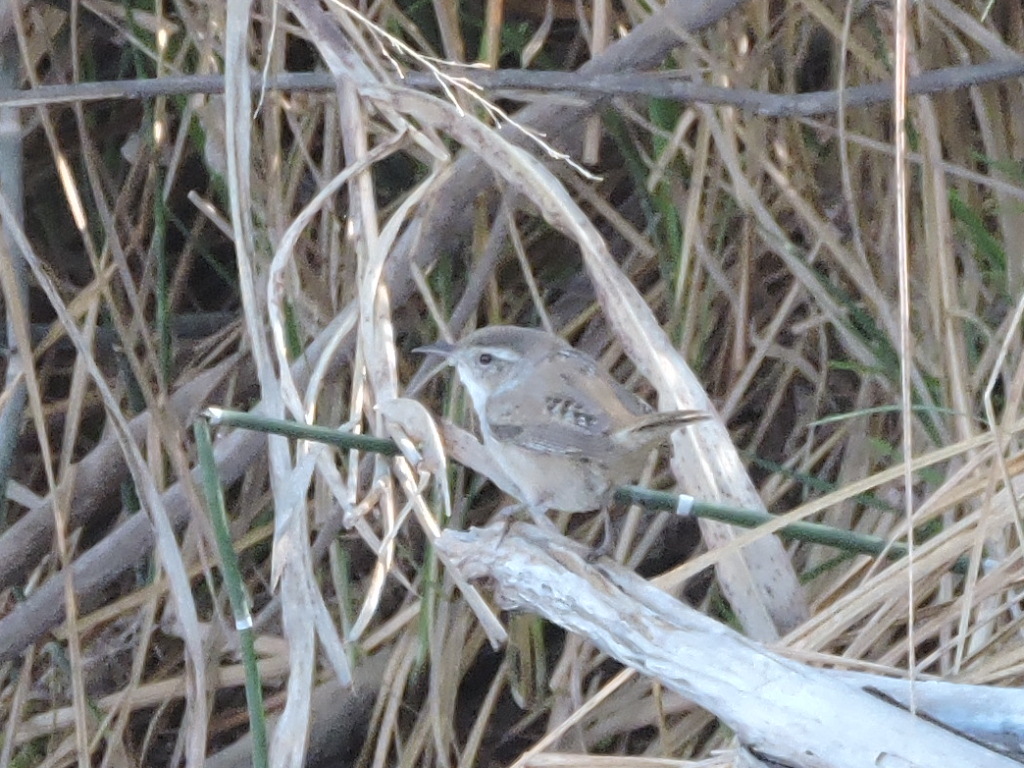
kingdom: Animalia
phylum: Chordata
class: Aves
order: Passeriformes
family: Troglodytidae
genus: Cistothorus
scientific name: Cistothorus palustris
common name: Marsh wren
